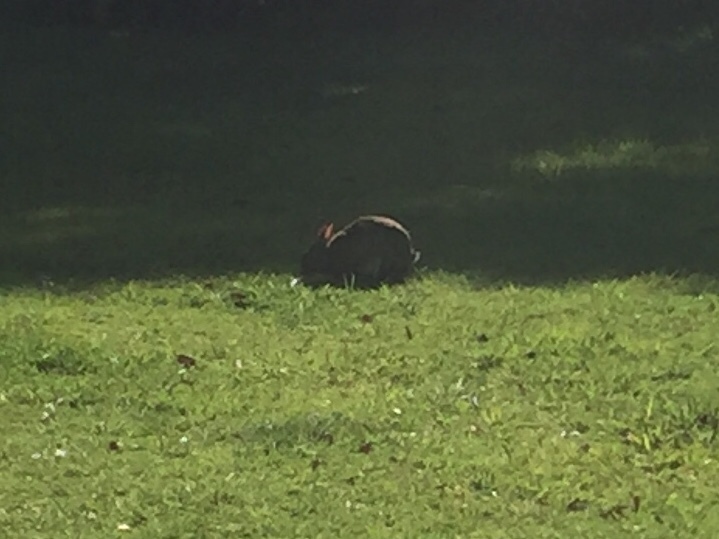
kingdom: Animalia
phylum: Chordata
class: Mammalia
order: Lagomorpha
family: Leporidae
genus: Oryctolagus
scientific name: Oryctolagus cuniculus
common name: European rabbit
